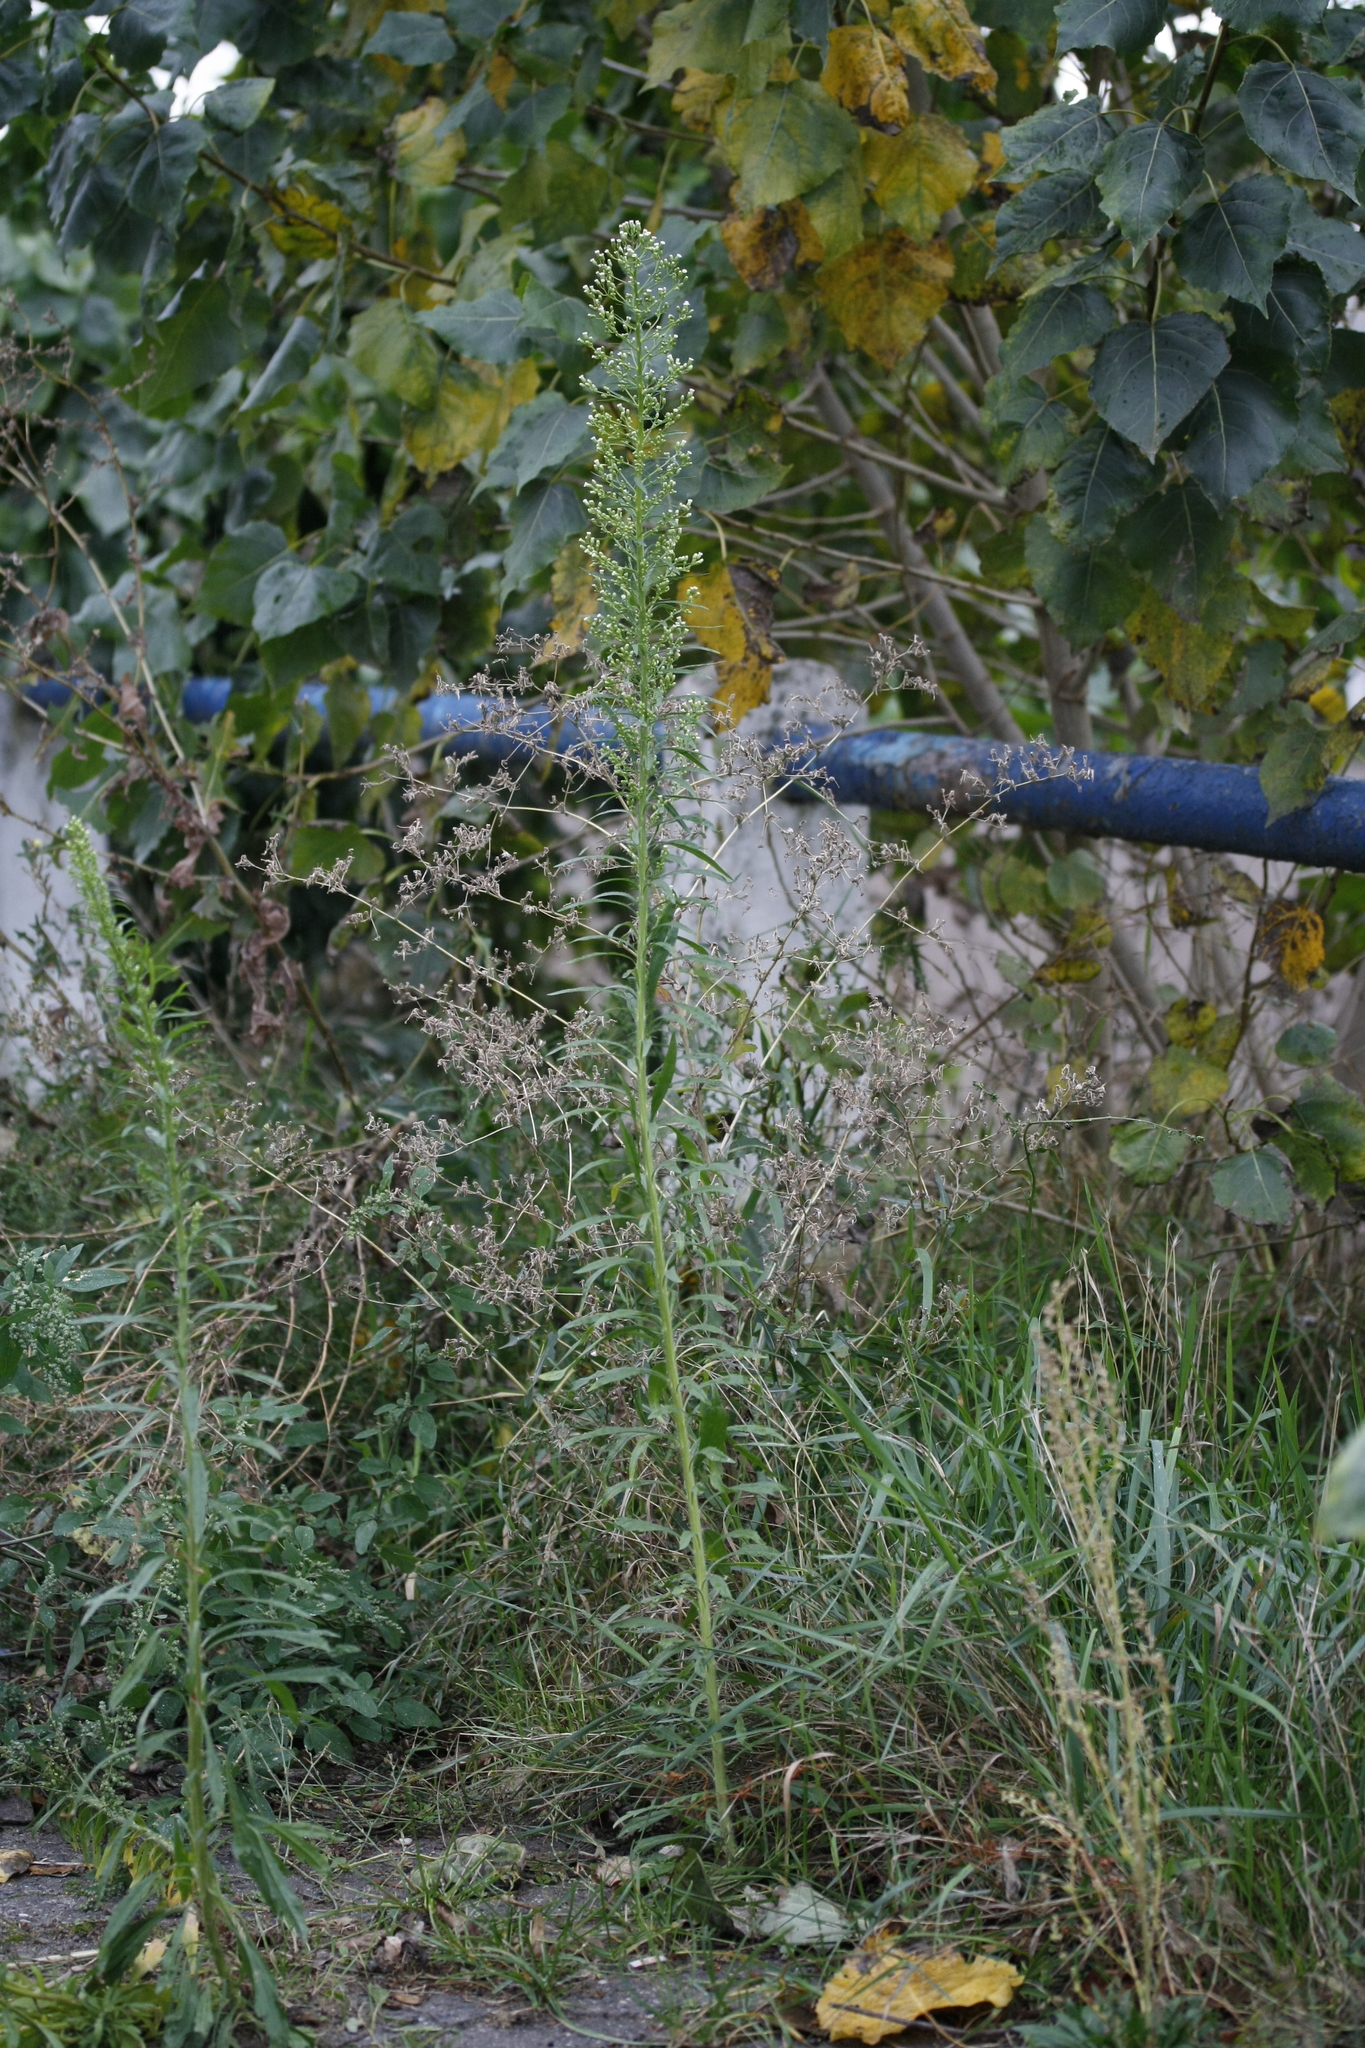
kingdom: Plantae
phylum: Tracheophyta
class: Magnoliopsida
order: Asterales
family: Asteraceae
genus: Erigeron
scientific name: Erigeron canadensis
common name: Canadian fleabane
